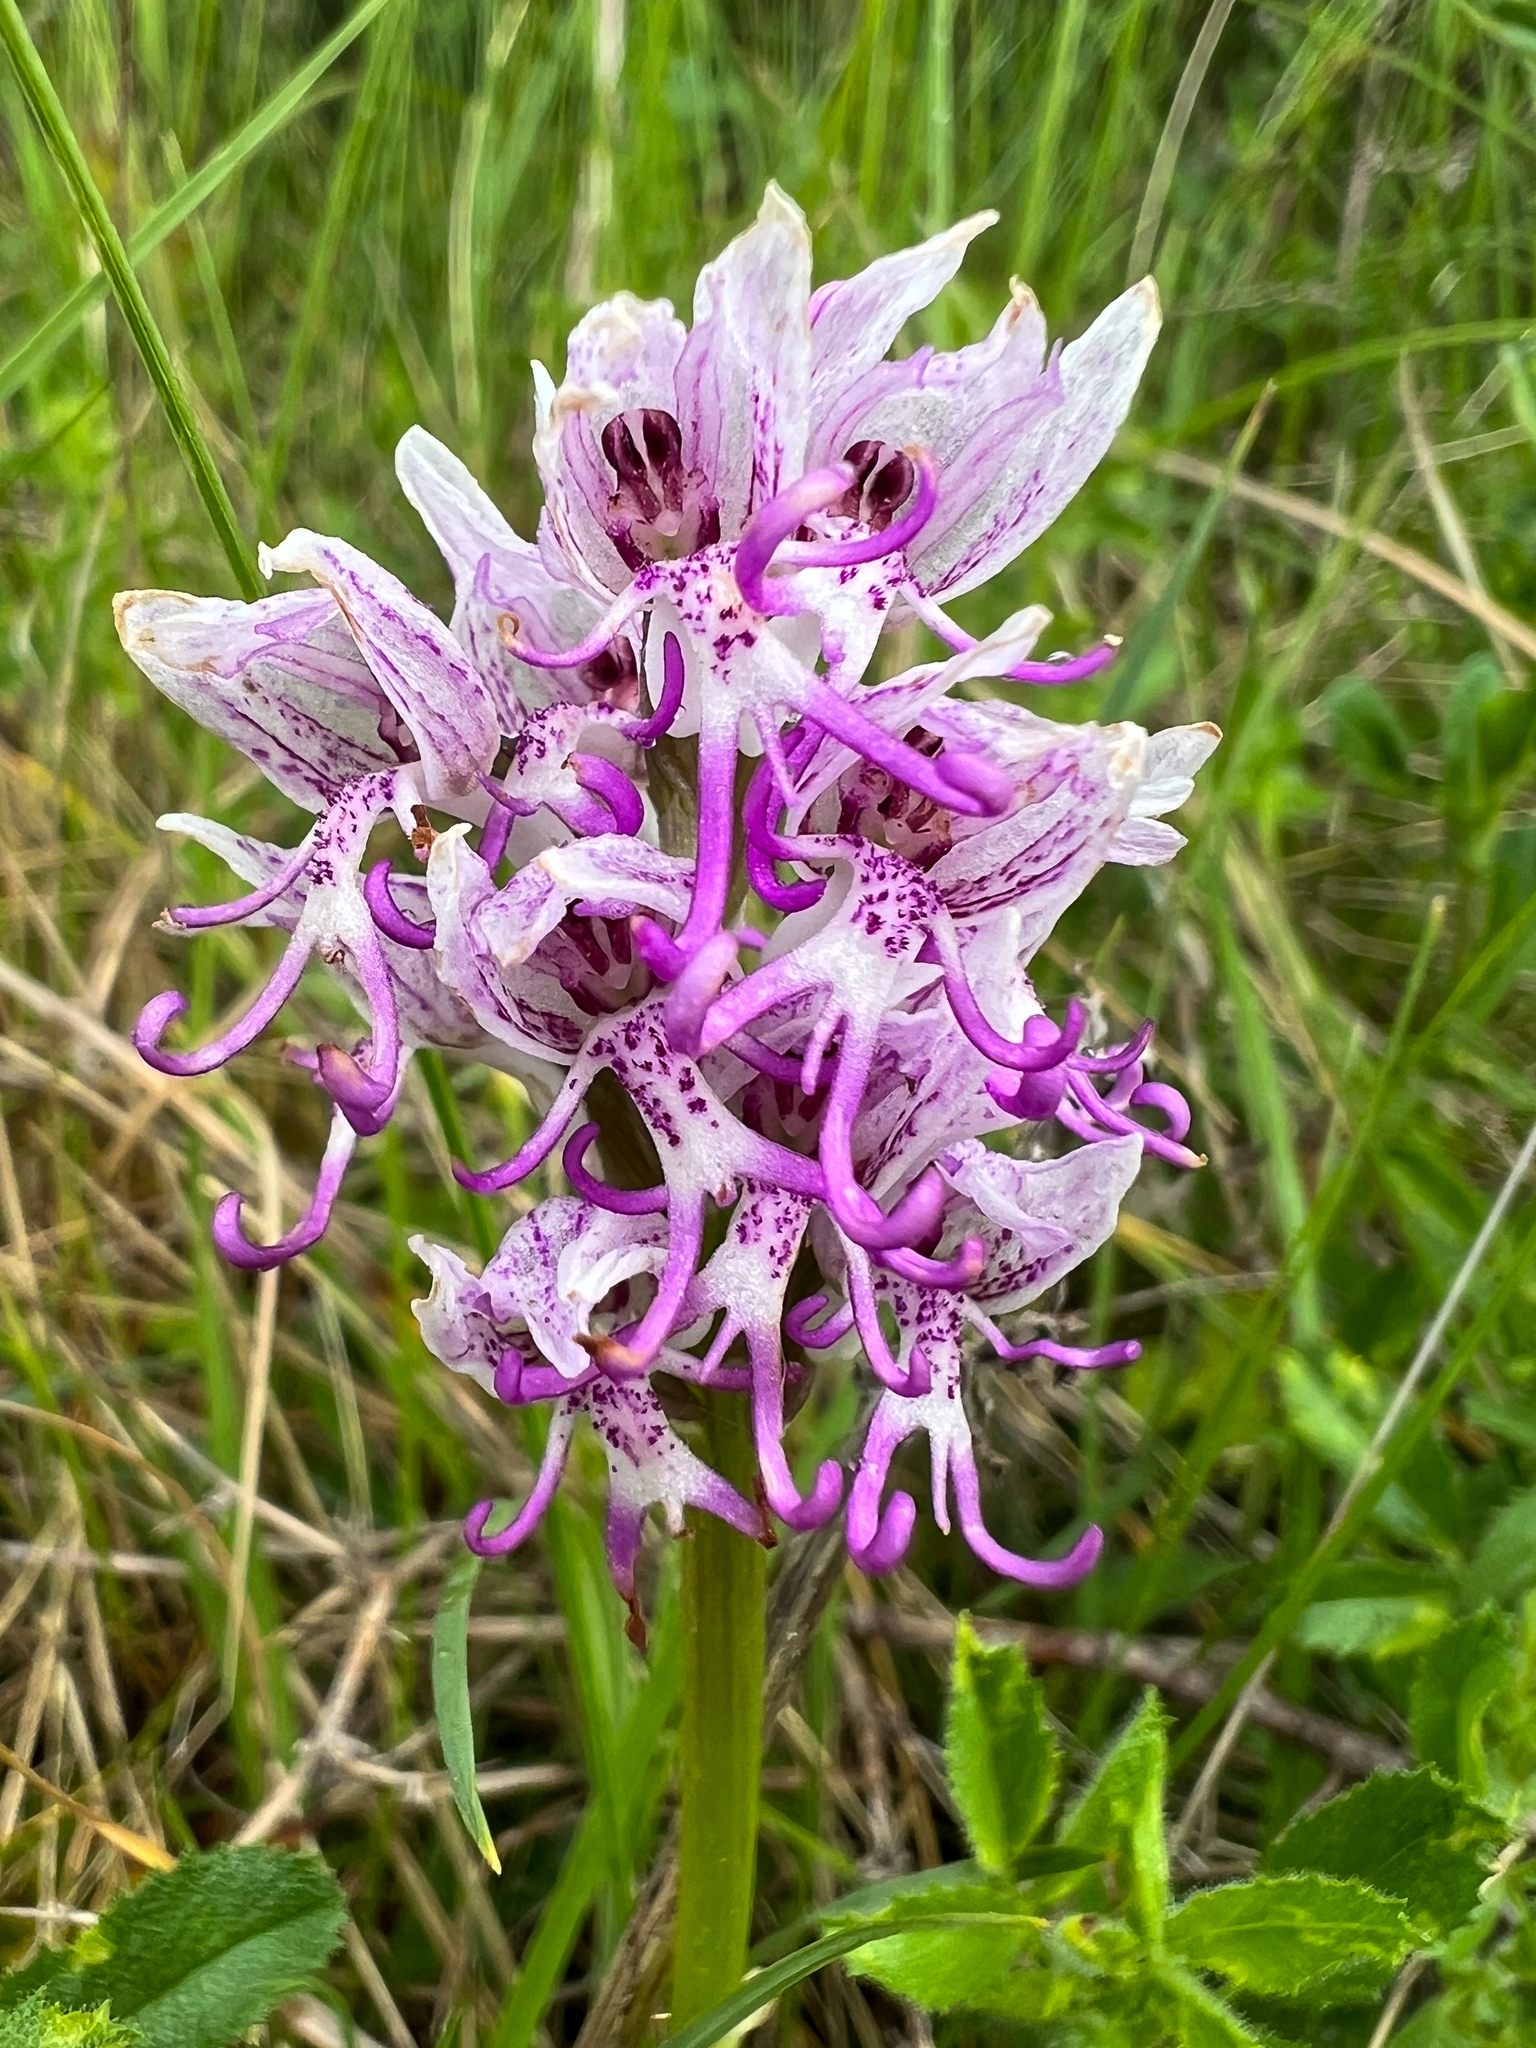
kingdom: Plantae
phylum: Tracheophyta
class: Liliopsida
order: Asparagales
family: Orchidaceae
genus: Orchis
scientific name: Orchis simia
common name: Monkey orchid
